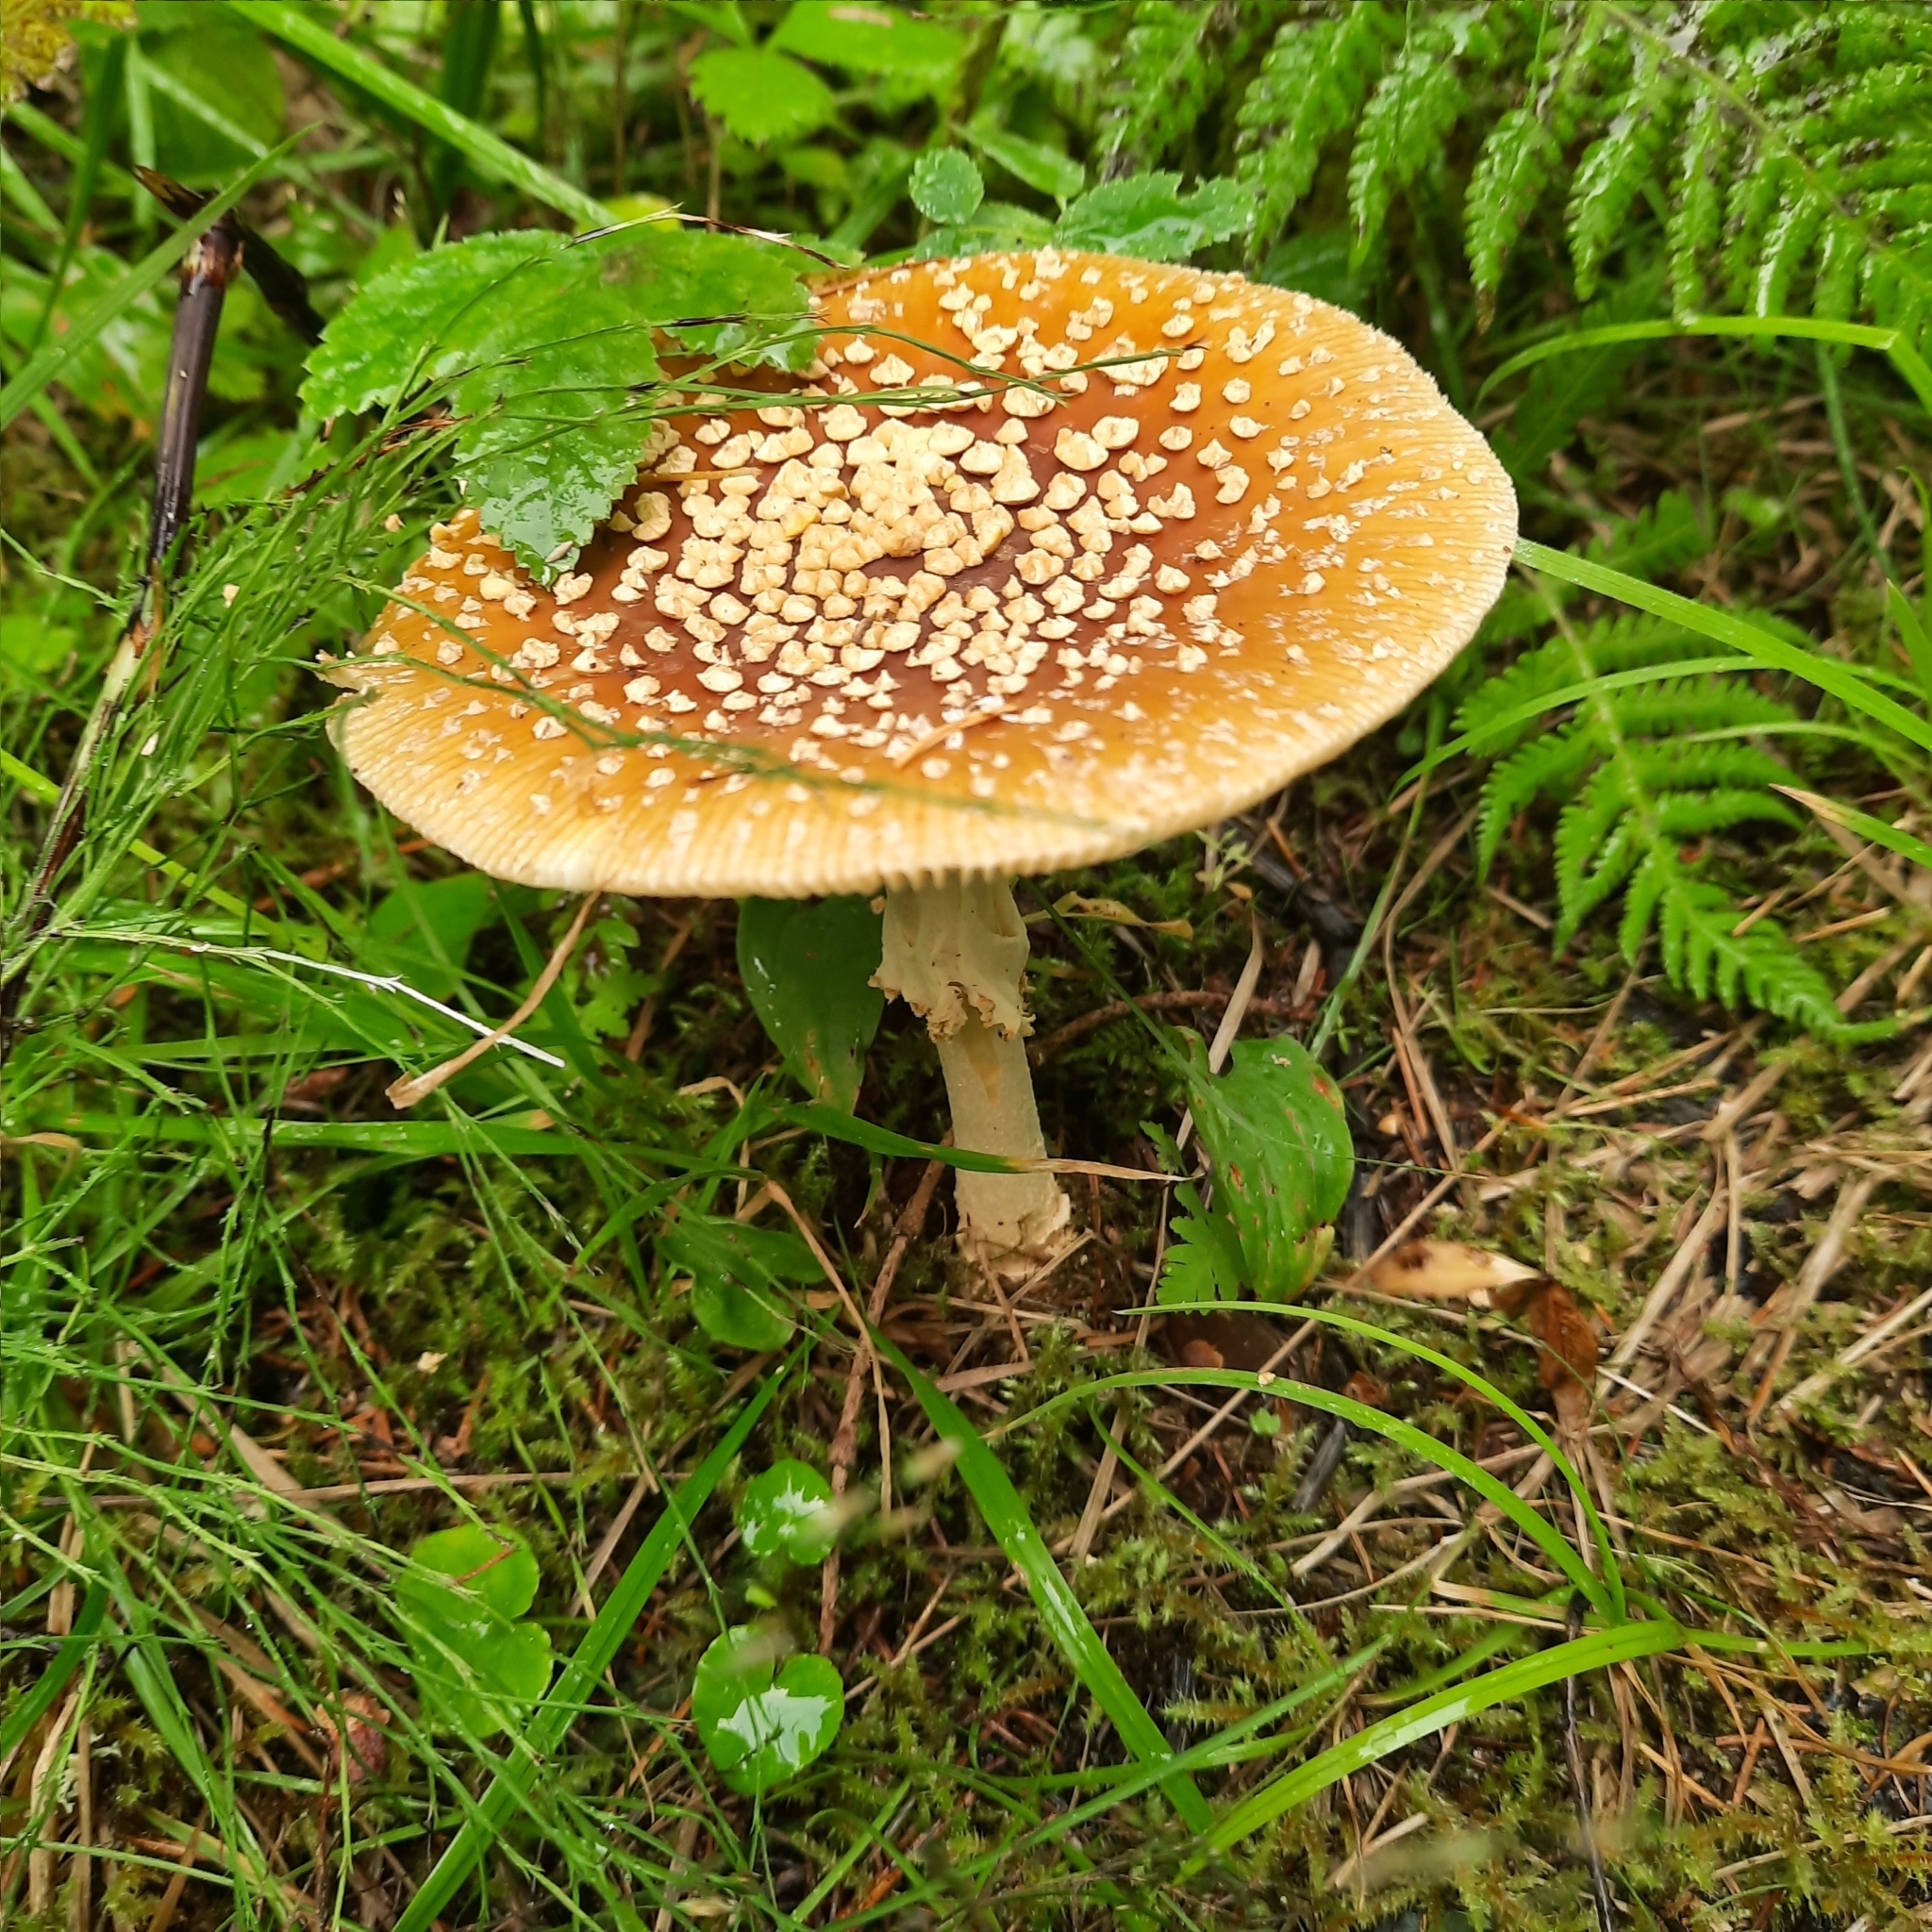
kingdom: Fungi
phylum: Basidiomycota
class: Agaricomycetes
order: Agaricales
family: Amanitaceae
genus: Amanita
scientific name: Amanita regalis
